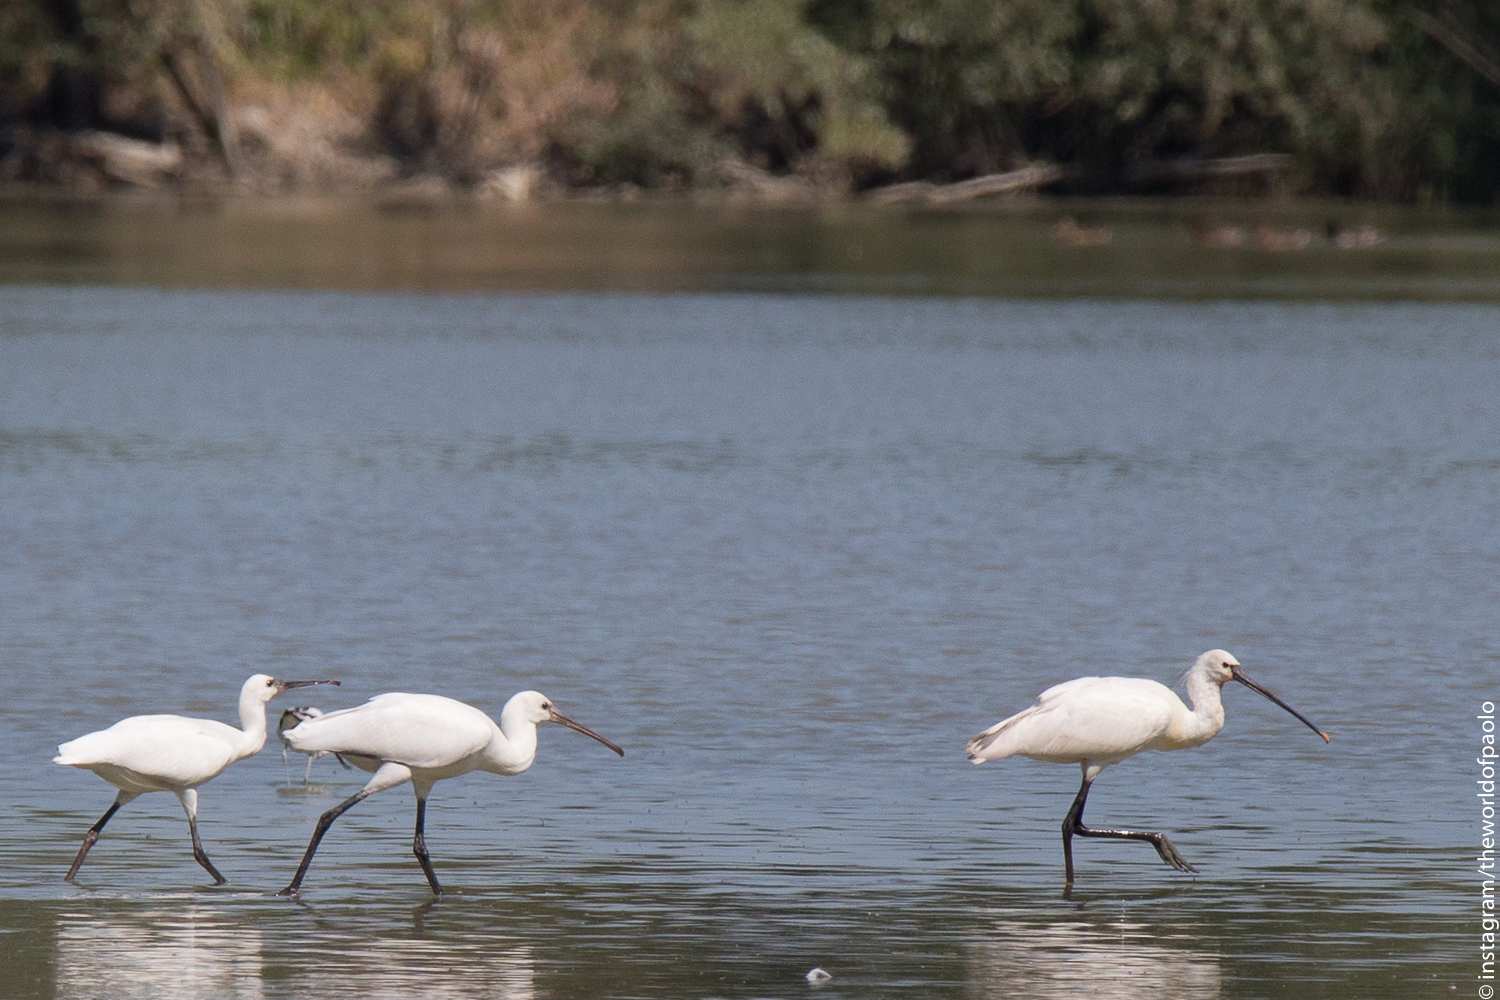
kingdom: Animalia
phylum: Chordata
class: Aves
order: Pelecaniformes
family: Threskiornithidae
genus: Platalea
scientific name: Platalea leucorodia
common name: Eurasian spoonbill
